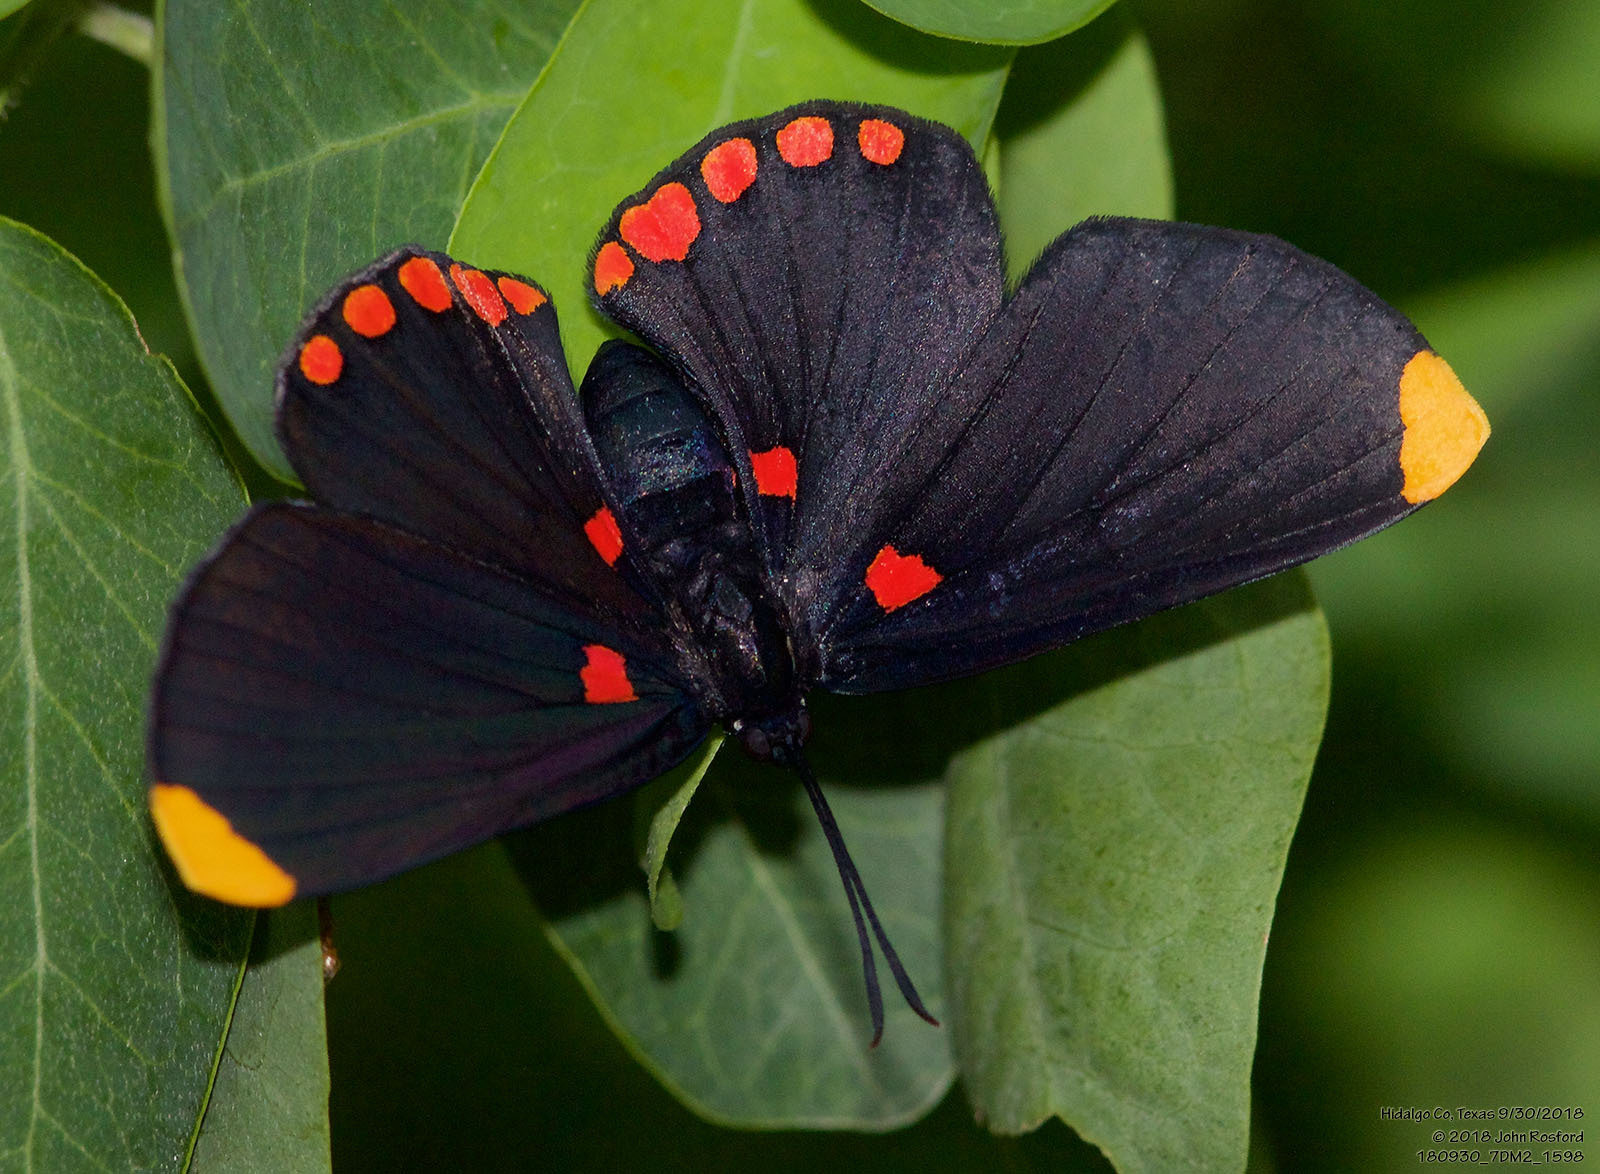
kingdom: Animalia
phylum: Arthropoda
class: Insecta
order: Lepidoptera
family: Lycaenidae
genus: Melanis
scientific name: Melanis pixe
